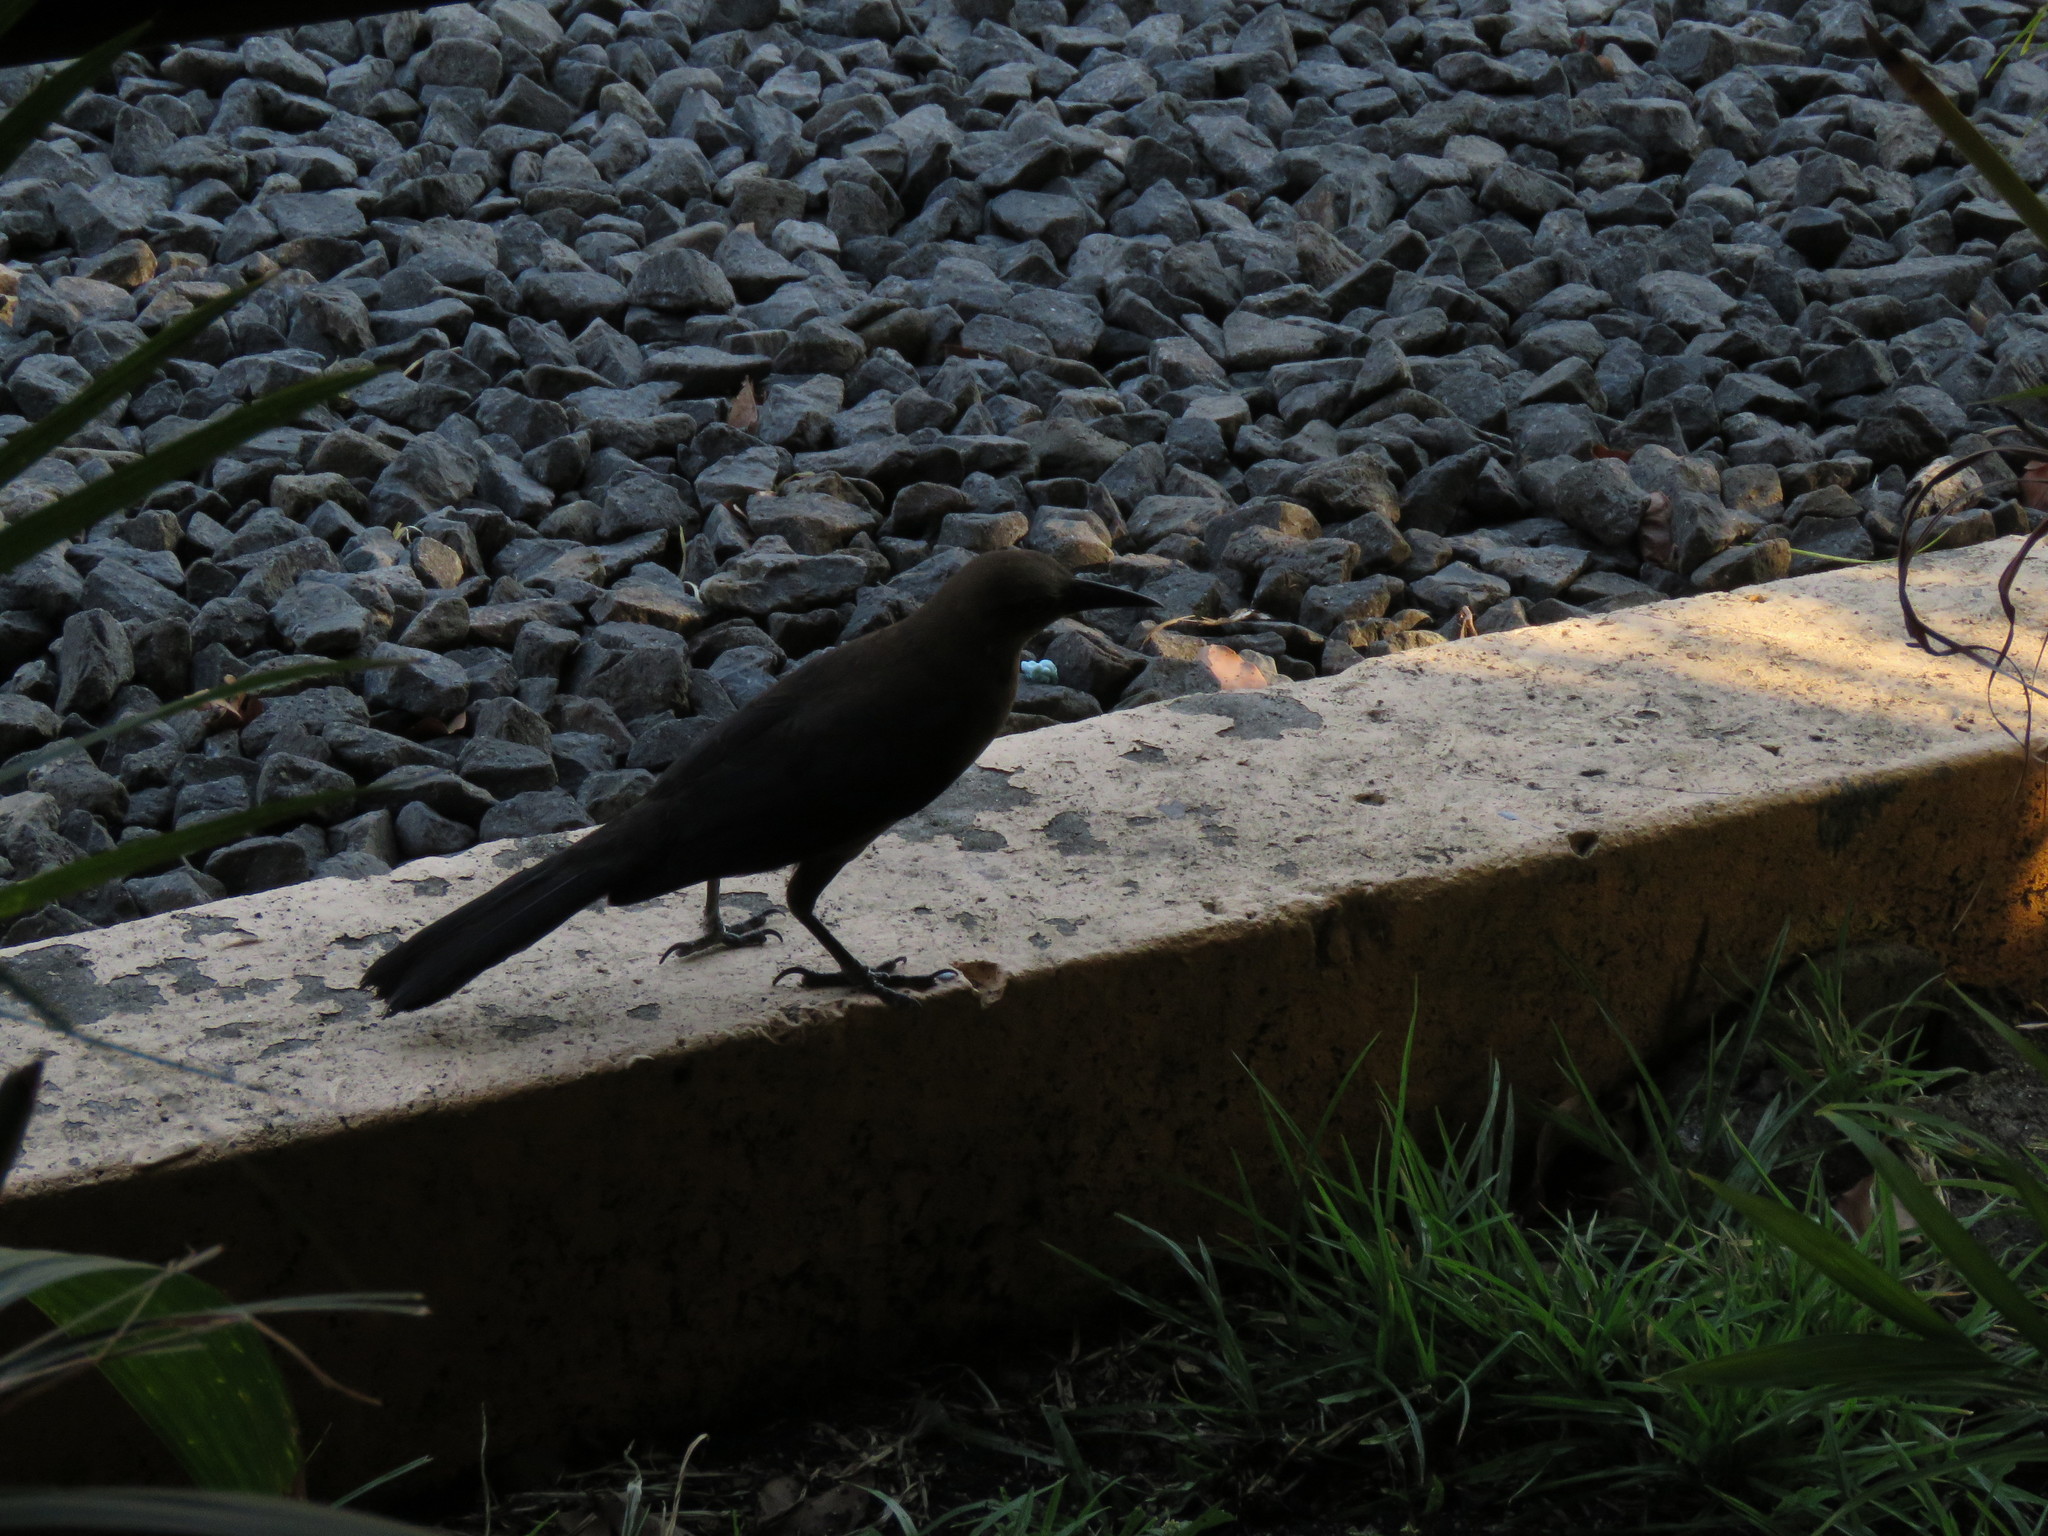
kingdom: Animalia
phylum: Chordata
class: Aves
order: Passeriformes
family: Icteridae
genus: Quiscalus
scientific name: Quiscalus mexicanus
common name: Great-tailed grackle
